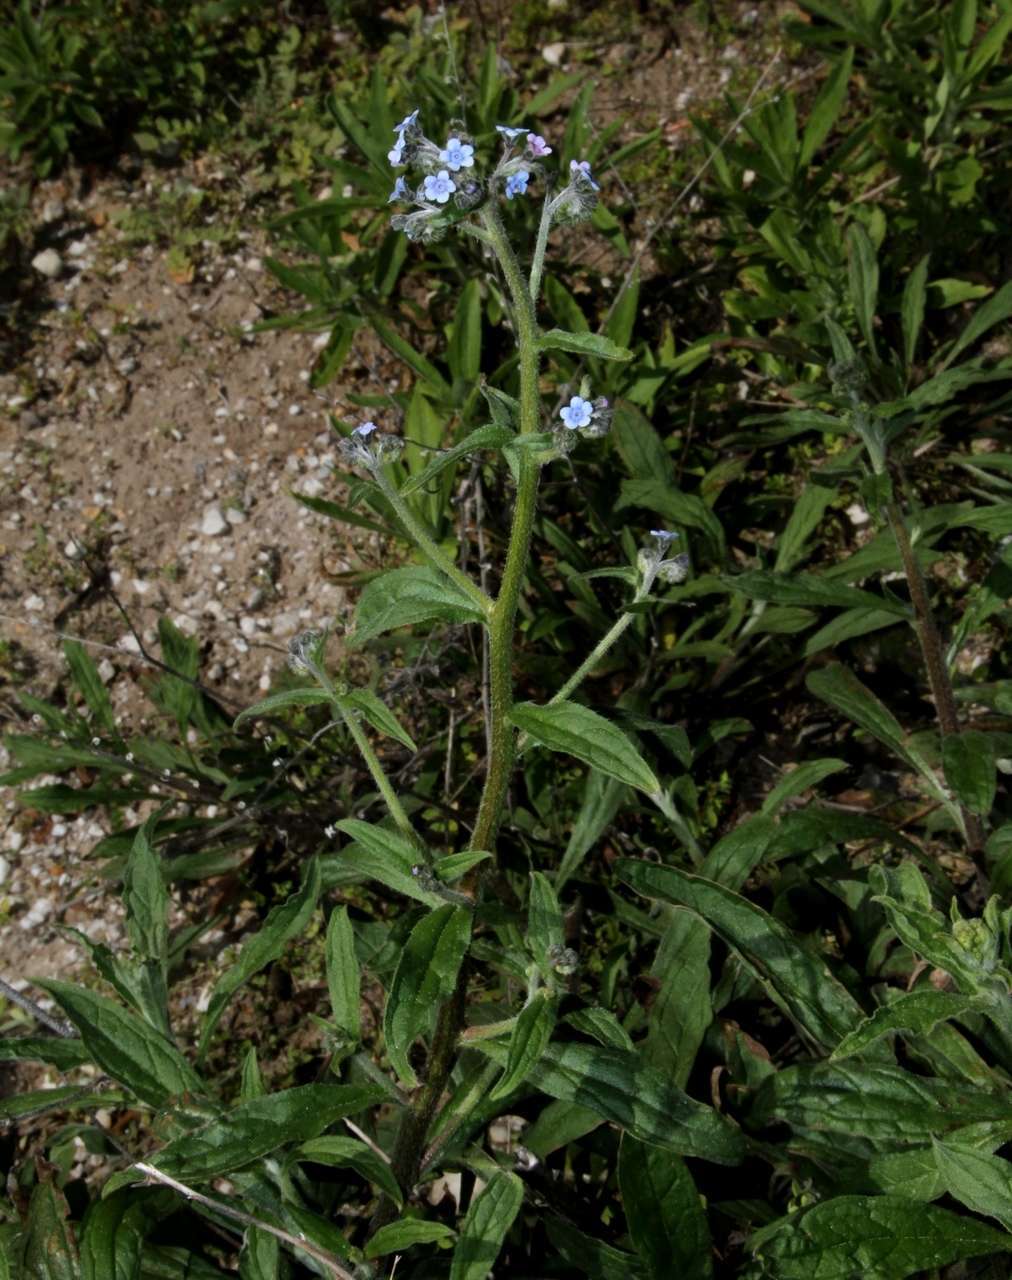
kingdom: Plantae
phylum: Tracheophyta
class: Magnoliopsida
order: Boraginales
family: Boraginaceae
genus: Cynoglossum
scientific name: Cynoglossum australe
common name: Australian hound's-tongue
